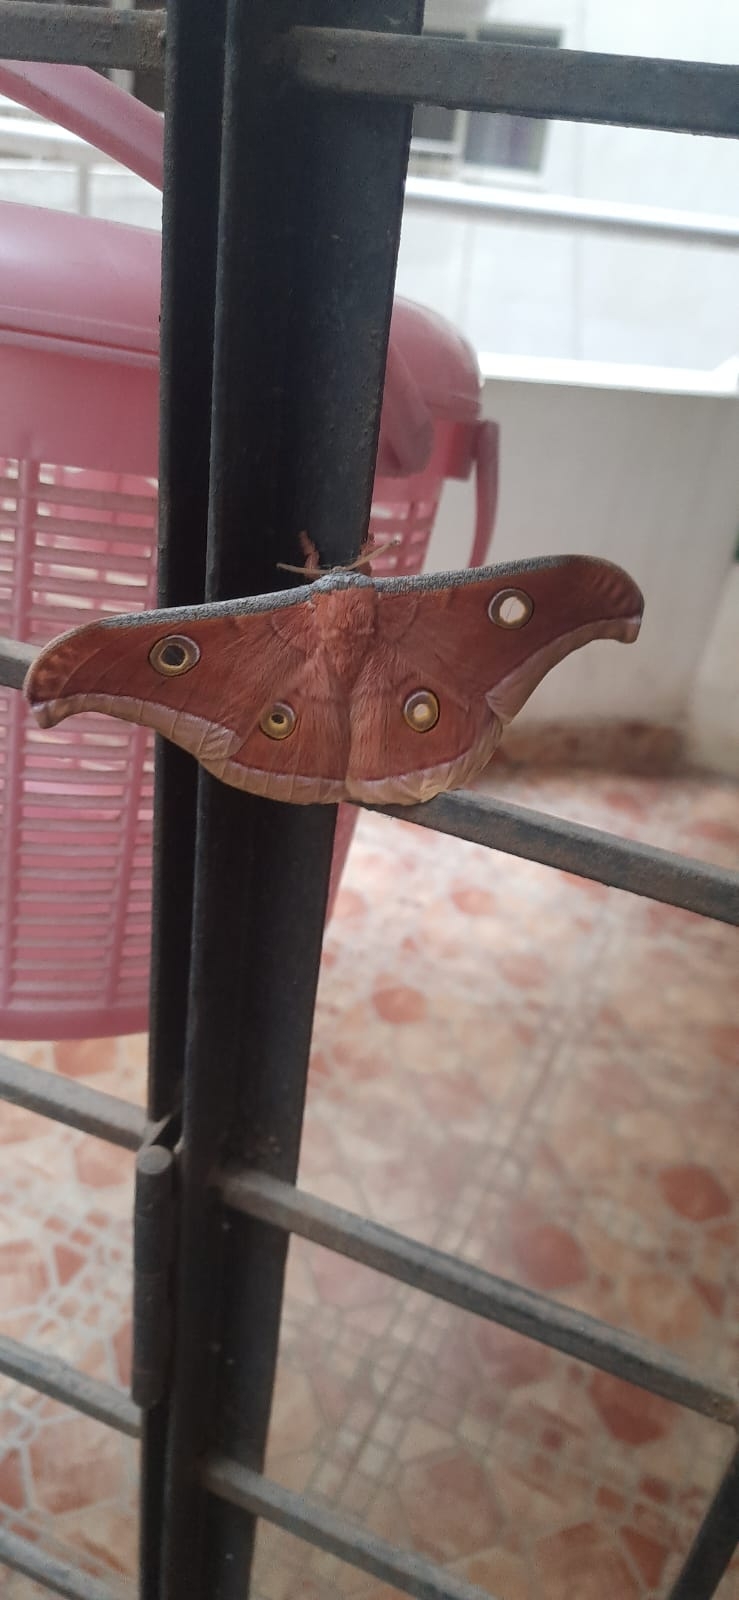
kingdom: Animalia
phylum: Arthropoda
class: Insecta
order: Lepidoptera
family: Saturniidae
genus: Antheraea
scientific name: Antheraea paphia
